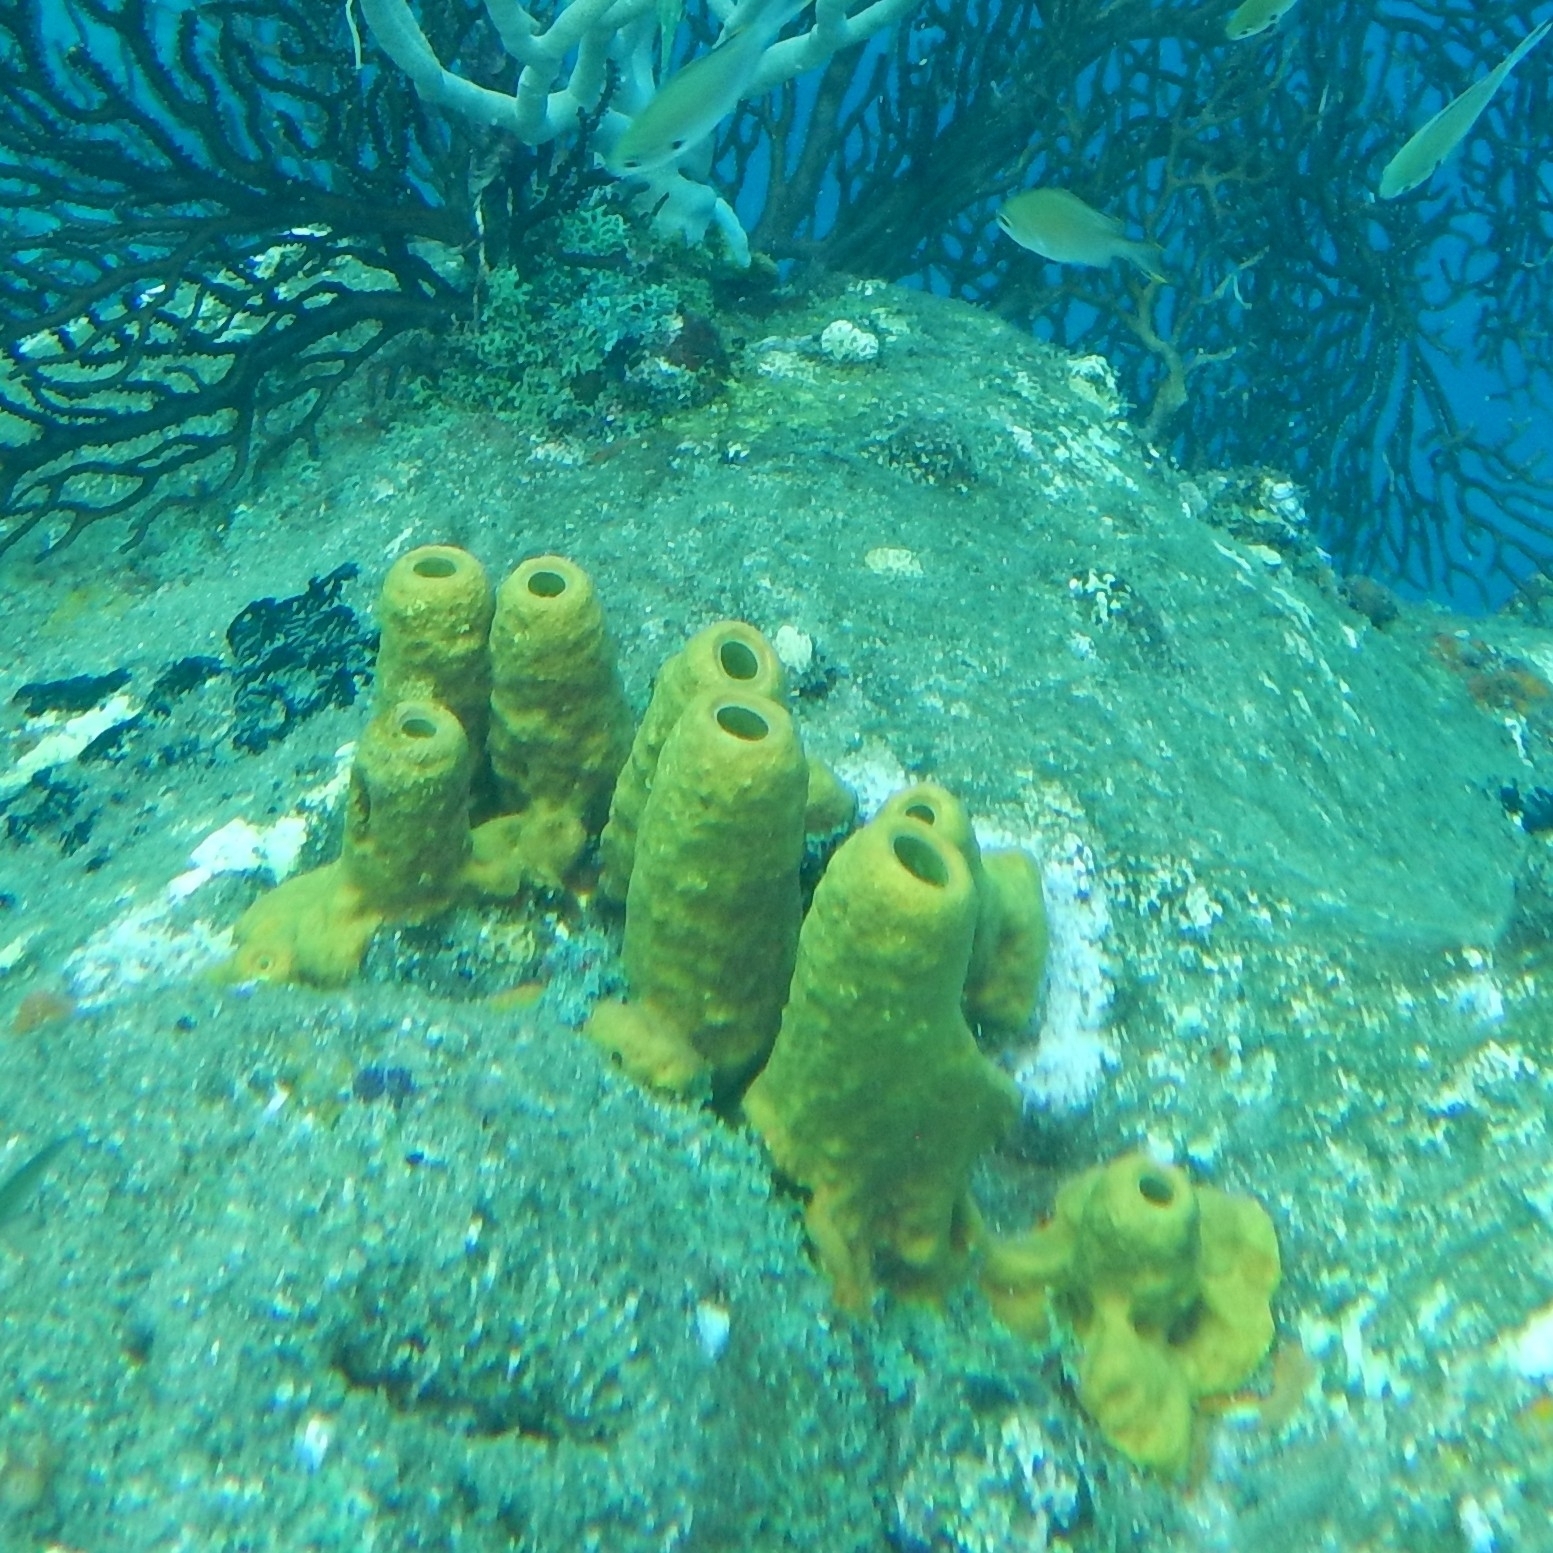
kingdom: Animalia
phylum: Porifera
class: Demospongiae
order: Verongiida
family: Aplysinidae
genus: Aplysina
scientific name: Aplysina fistularis
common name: Candle sponge
